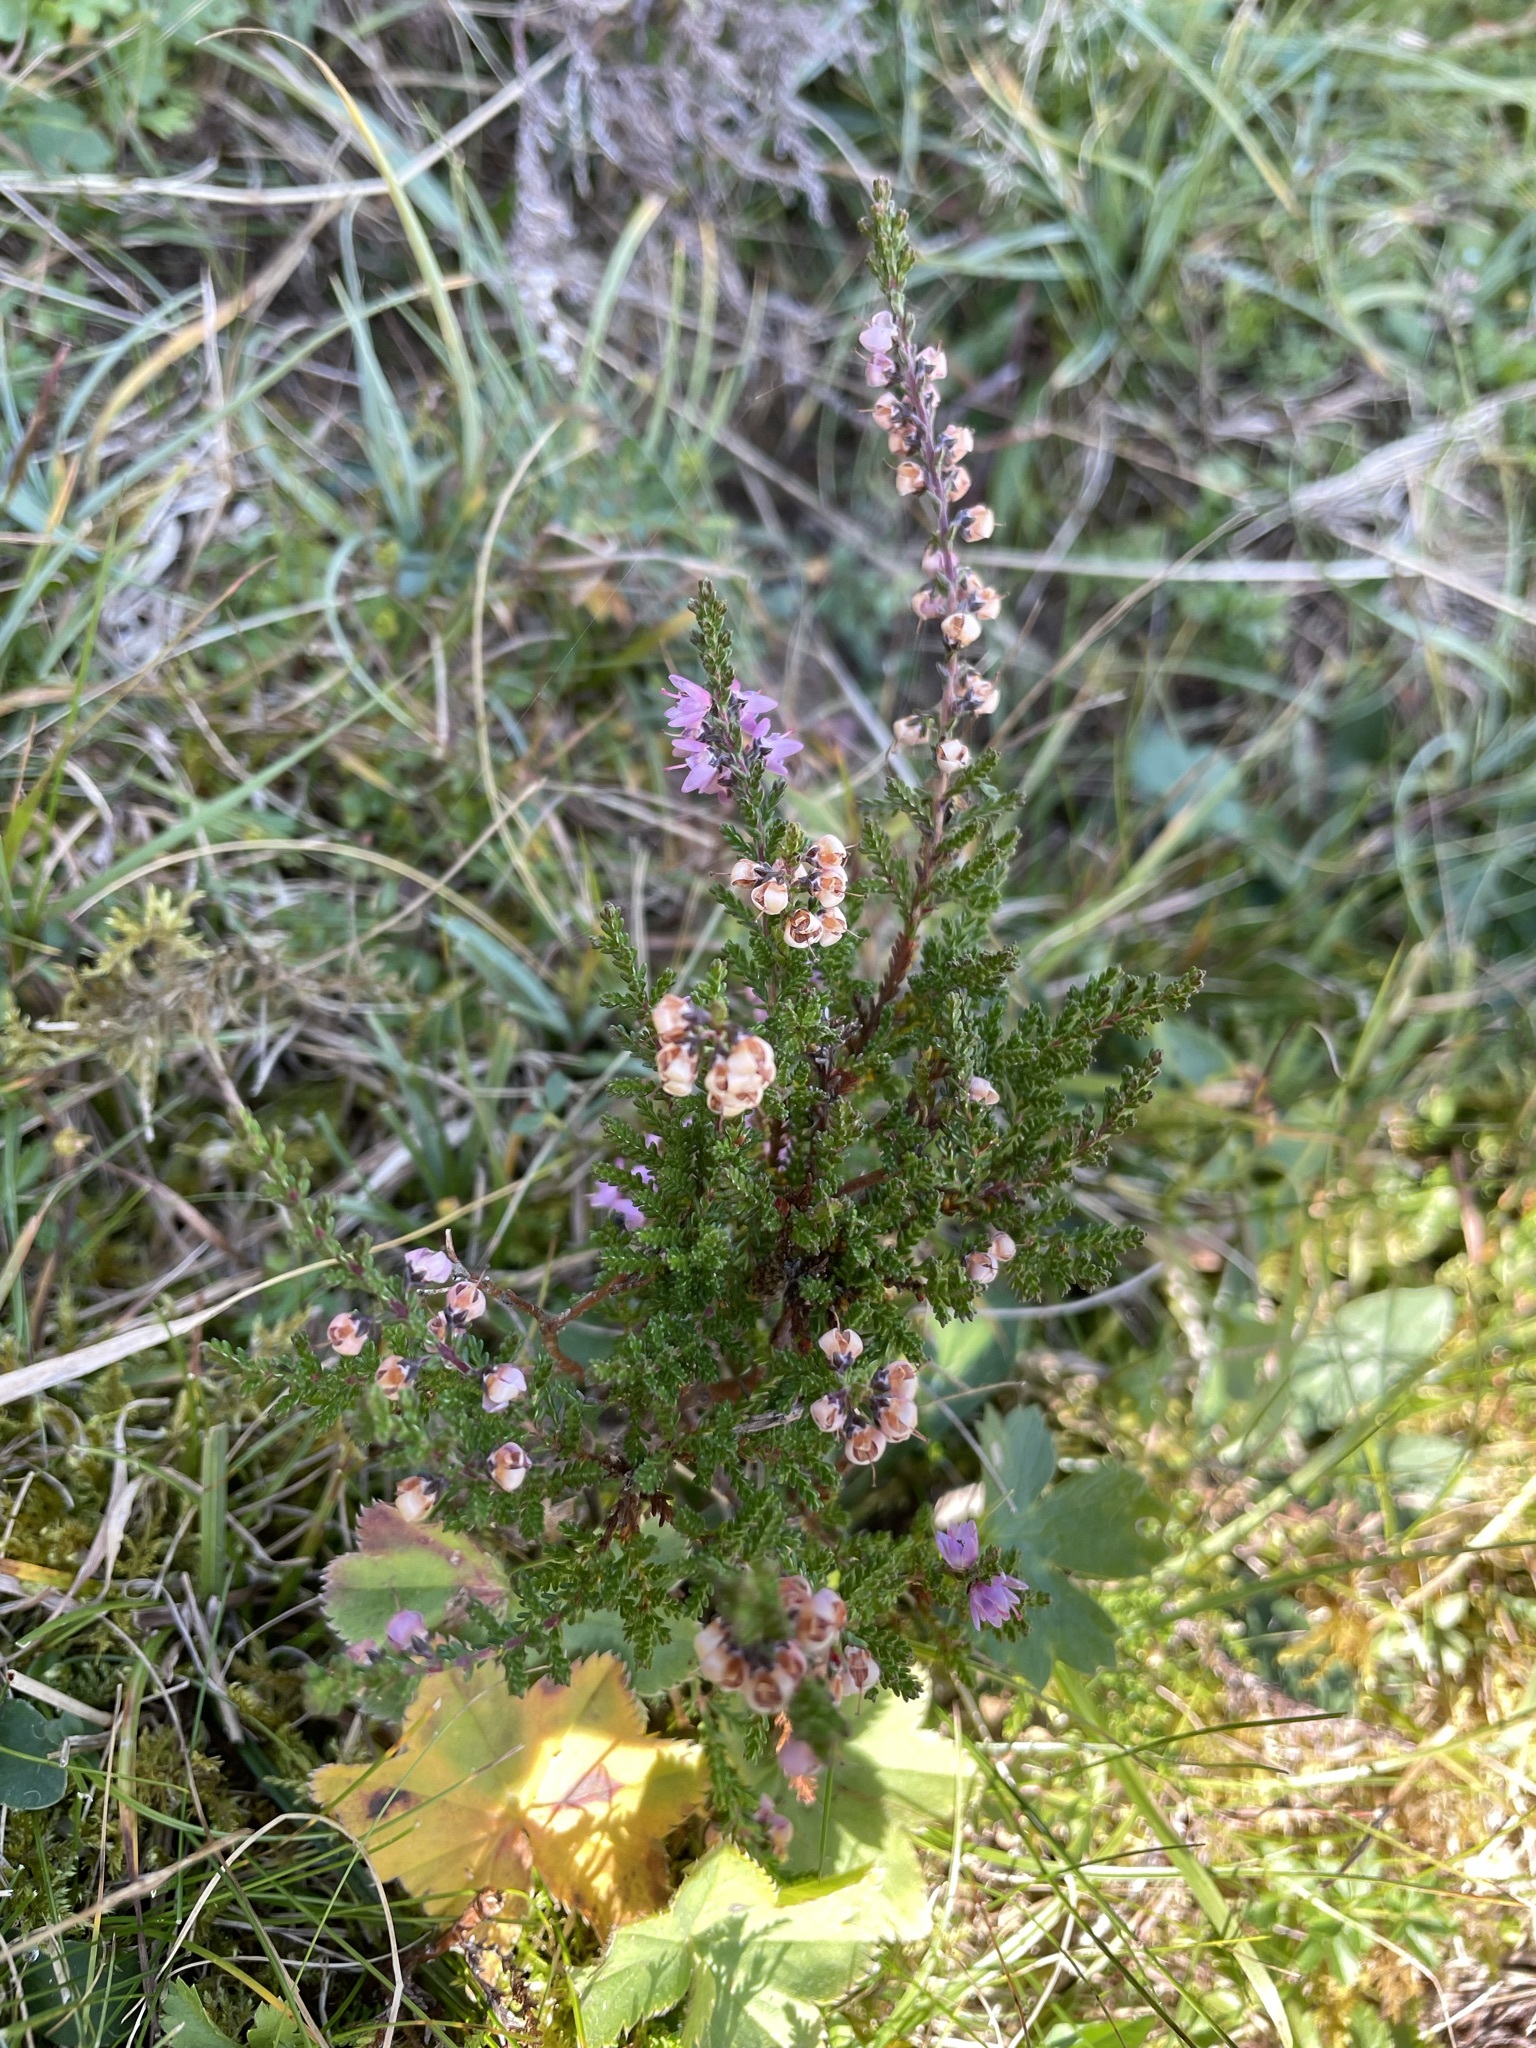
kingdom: Plantae
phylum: Tracheophyta
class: Magnoliopsida
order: Ericales
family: Ericaceae
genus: Calluna
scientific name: Calluna vulgaris
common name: Heather
